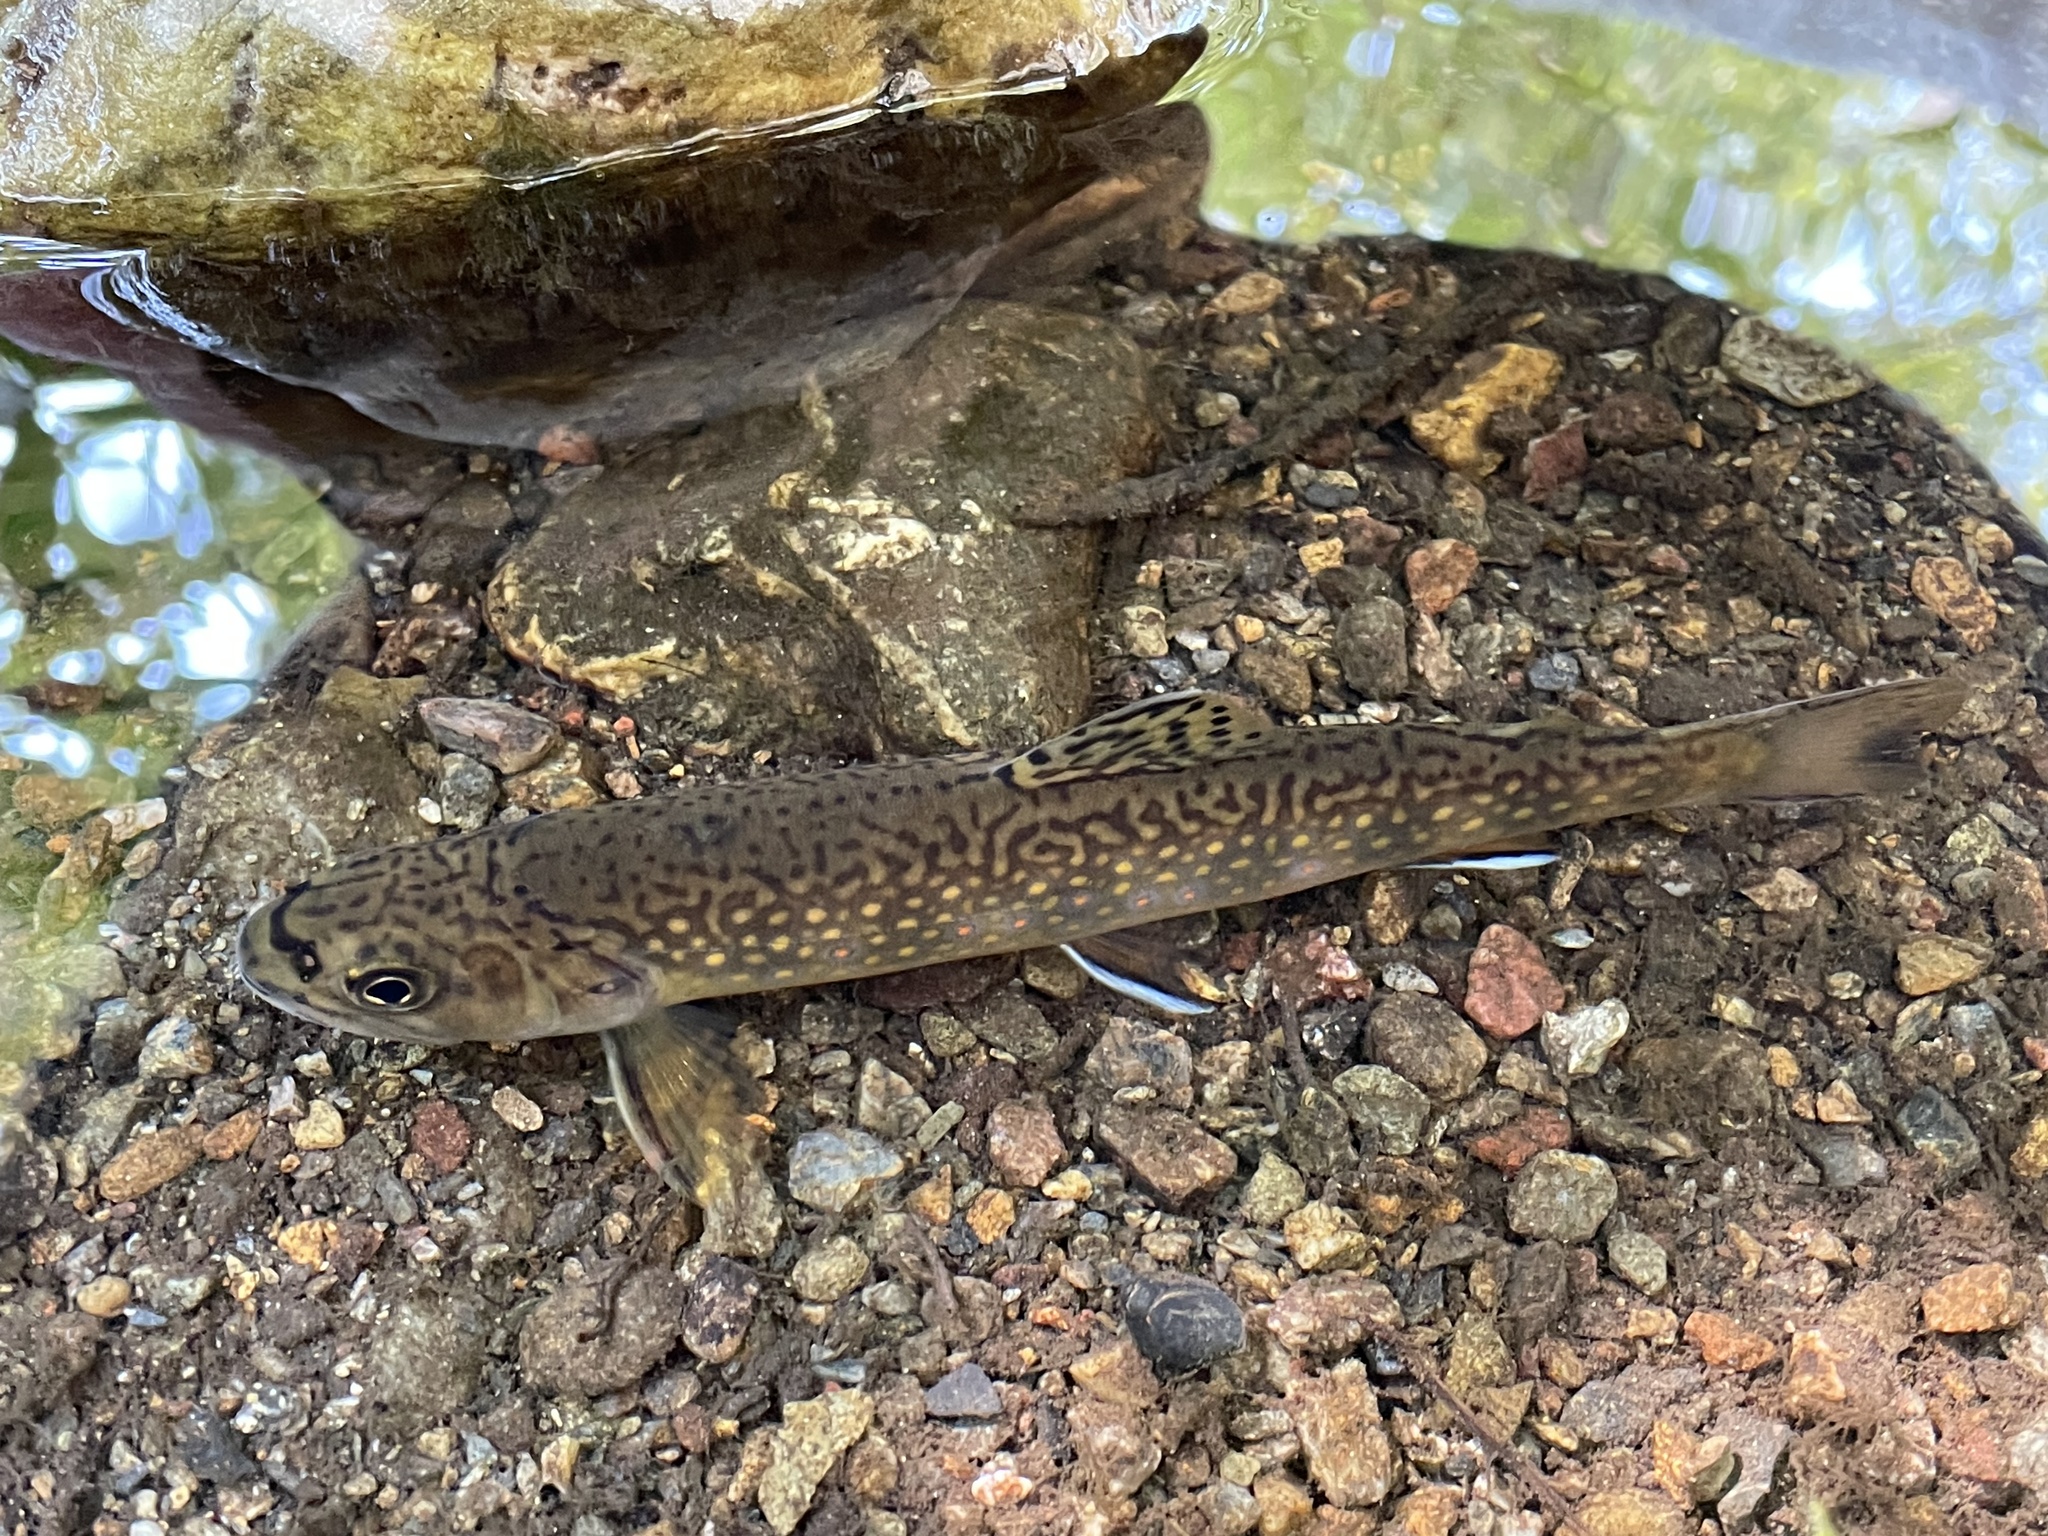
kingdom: Animalia
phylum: Chordata
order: Salmoniformes
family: Salmonidae
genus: Salvelinus
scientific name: Salvelinus fontinalis
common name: Brook trout
